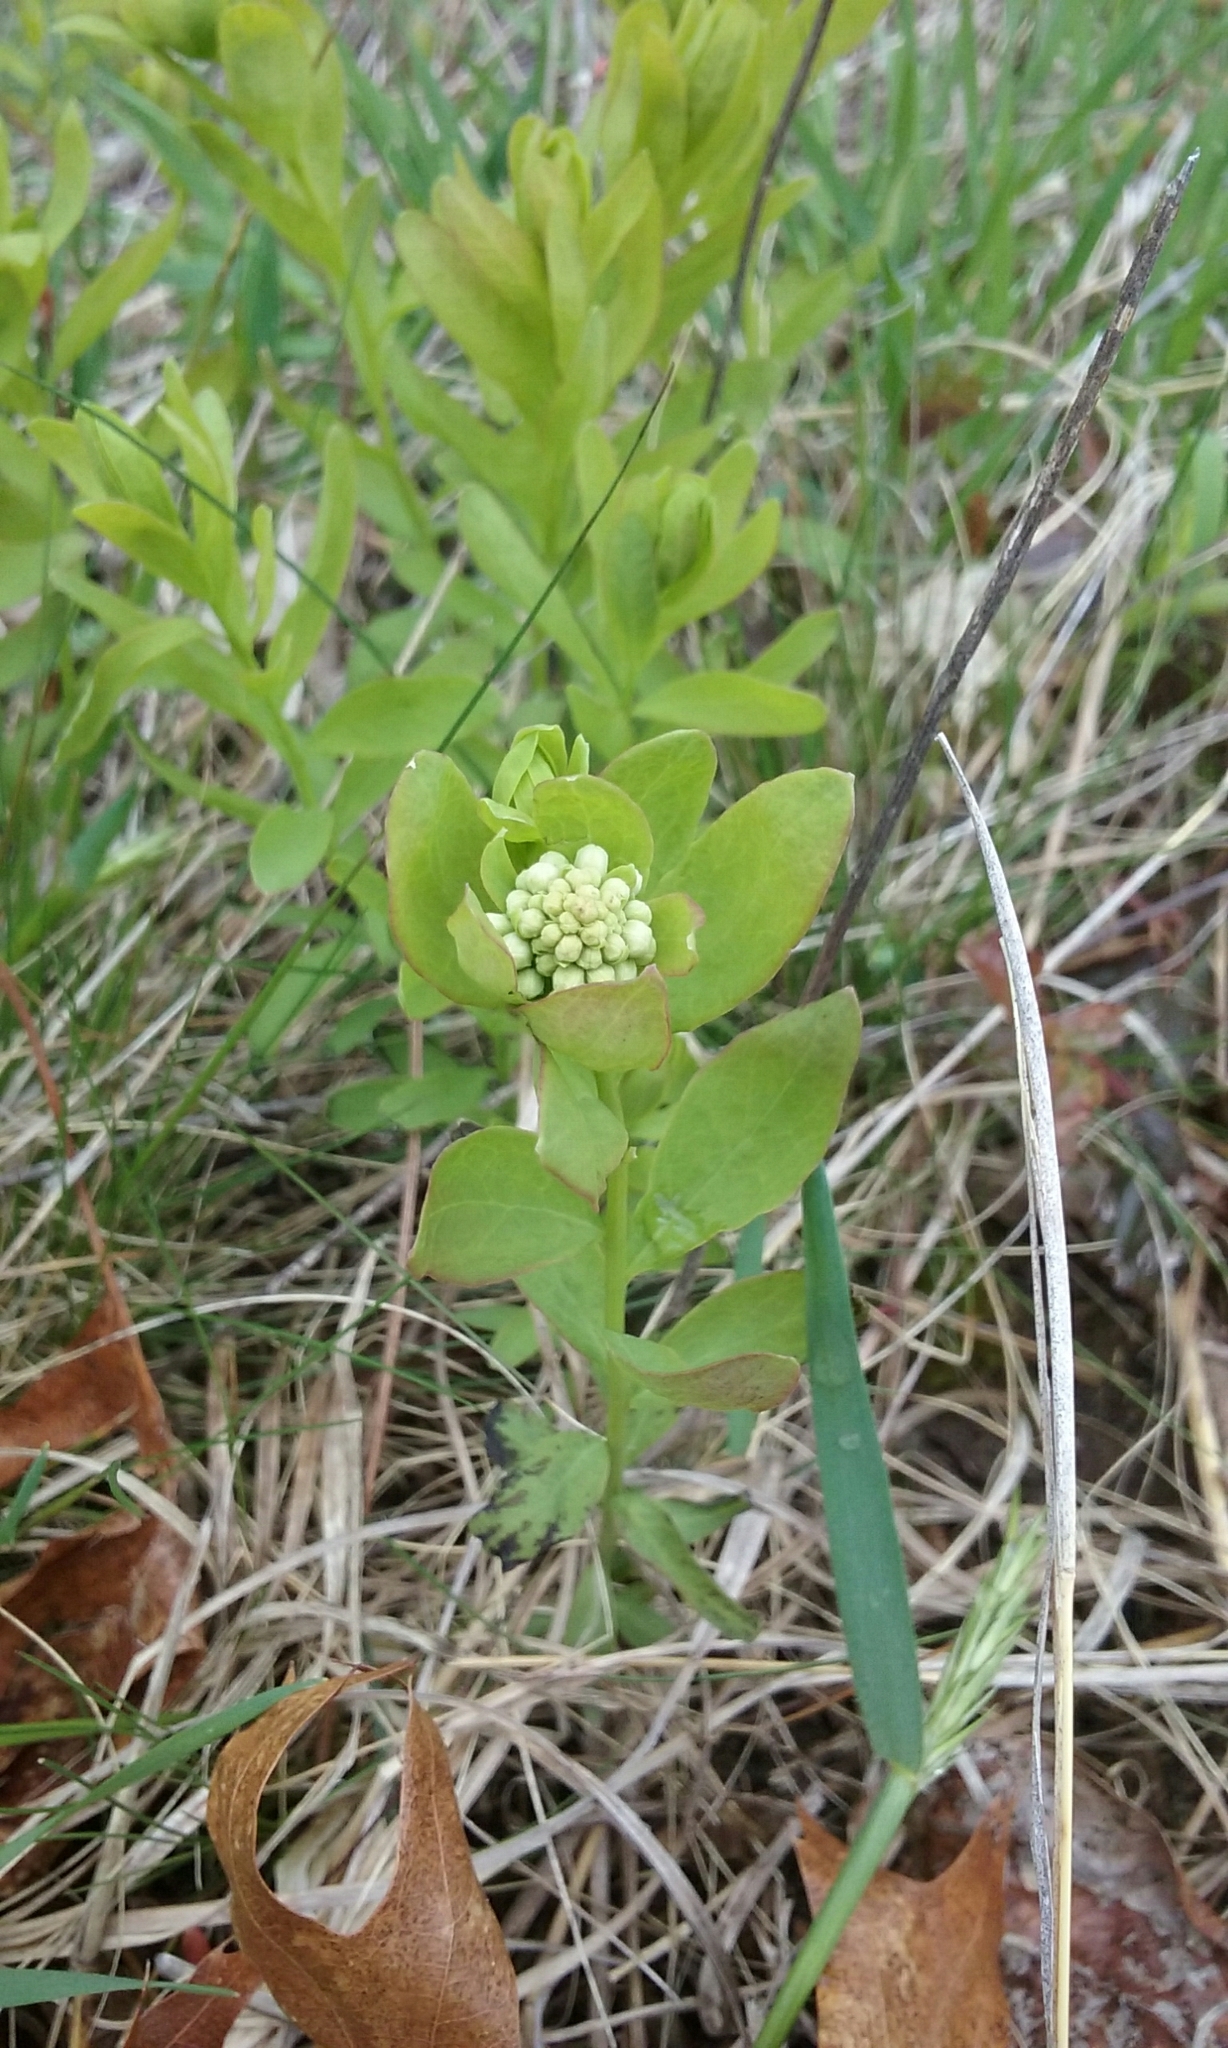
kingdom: Plantae
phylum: Tracheophyta
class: Magnoliopsida
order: Santalales
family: Comandraceae
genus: Comandra
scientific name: Comandra umbellata
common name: Bastard toadflax
